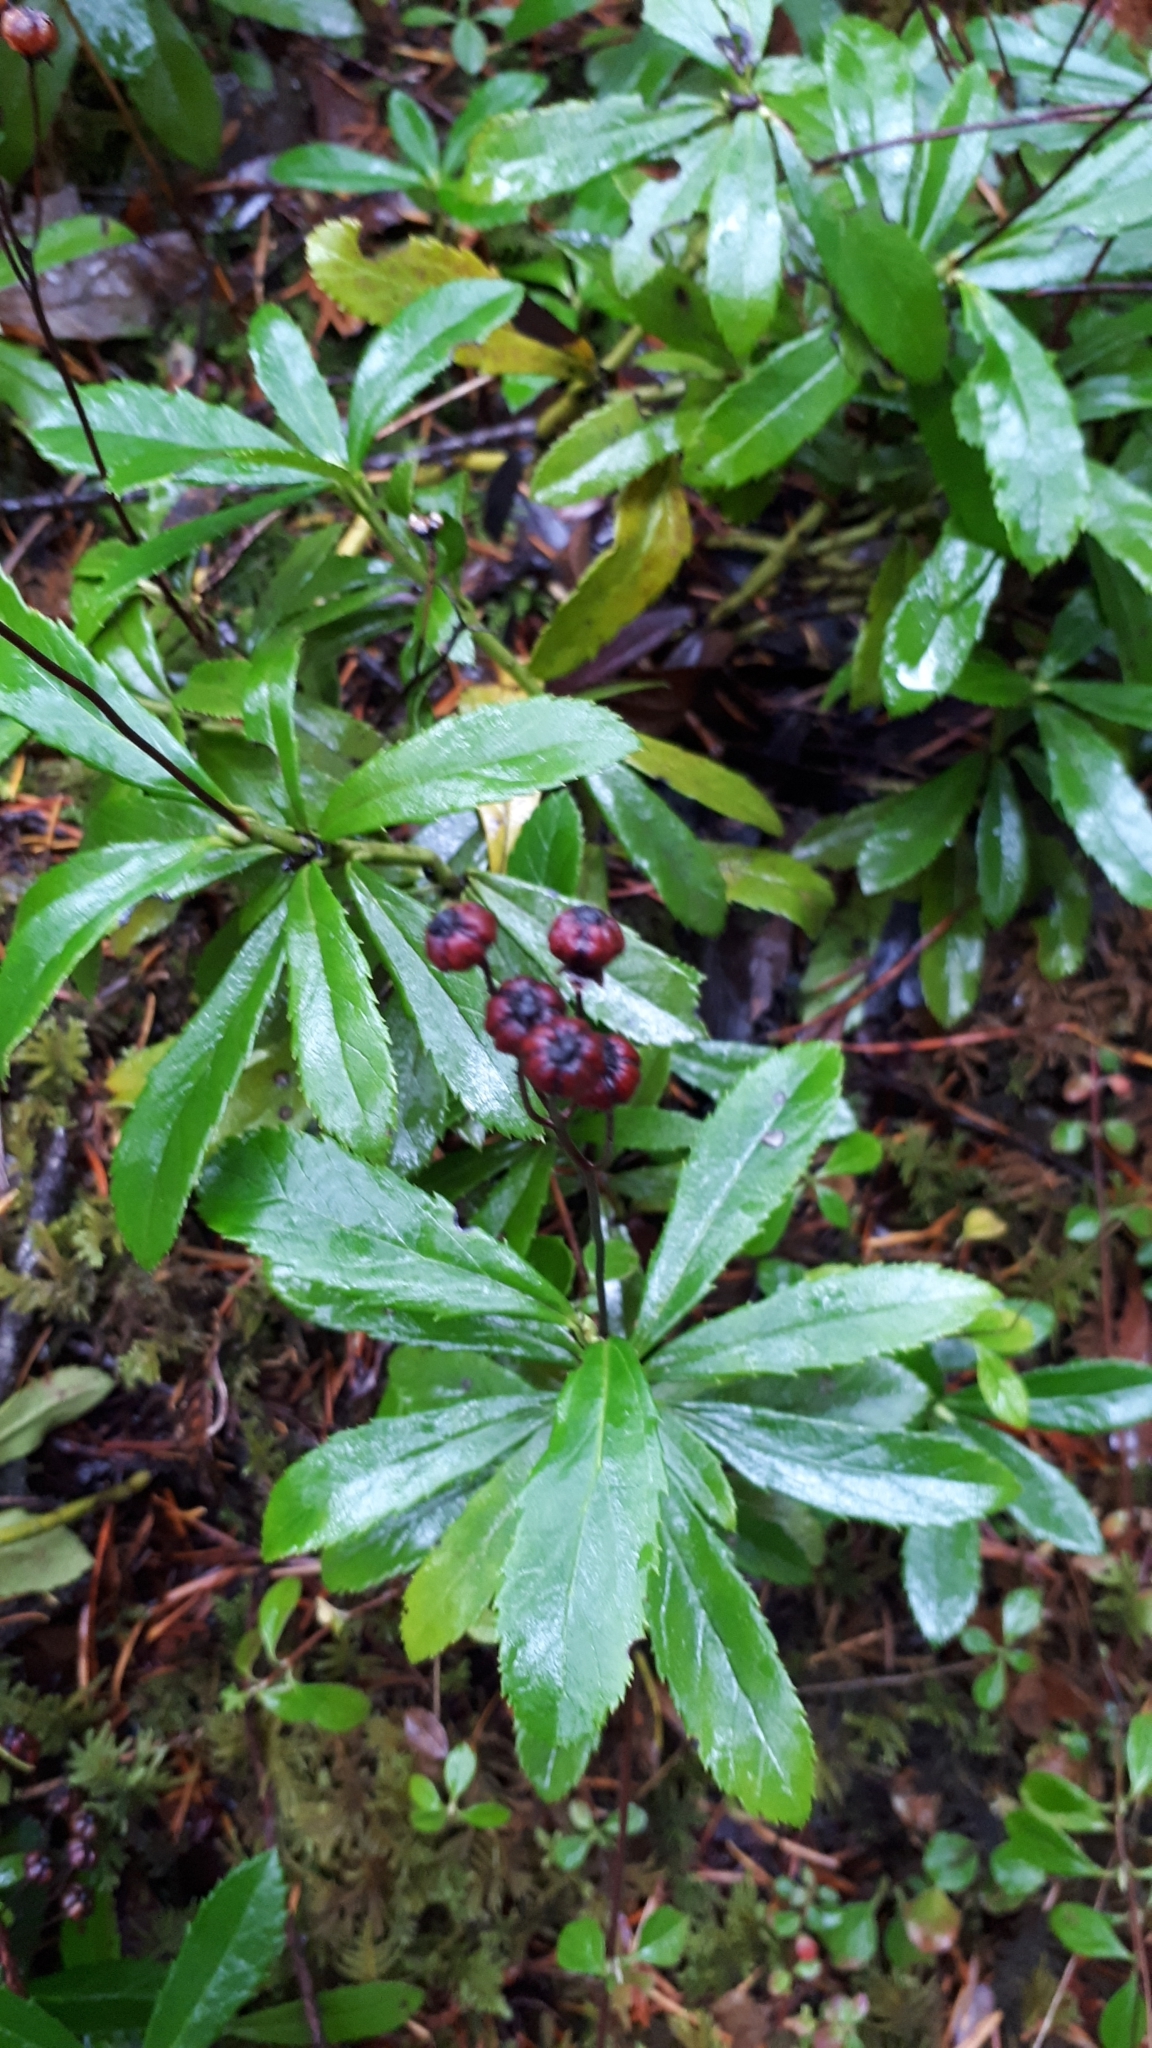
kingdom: Plantae
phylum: Tracheophyta
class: Magnoliopsida
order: Ericales
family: Ericaceae
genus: Chimaphila
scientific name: Chimaphila umbellata
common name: Pipsissewa
